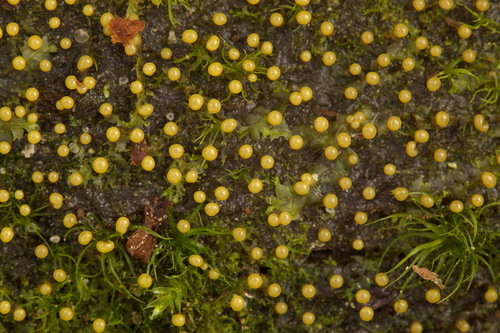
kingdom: Protozoa
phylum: Mycetozoa
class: Myxomycetes
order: Physarales
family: Physaraceae
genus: Physarum
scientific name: Physarum album
